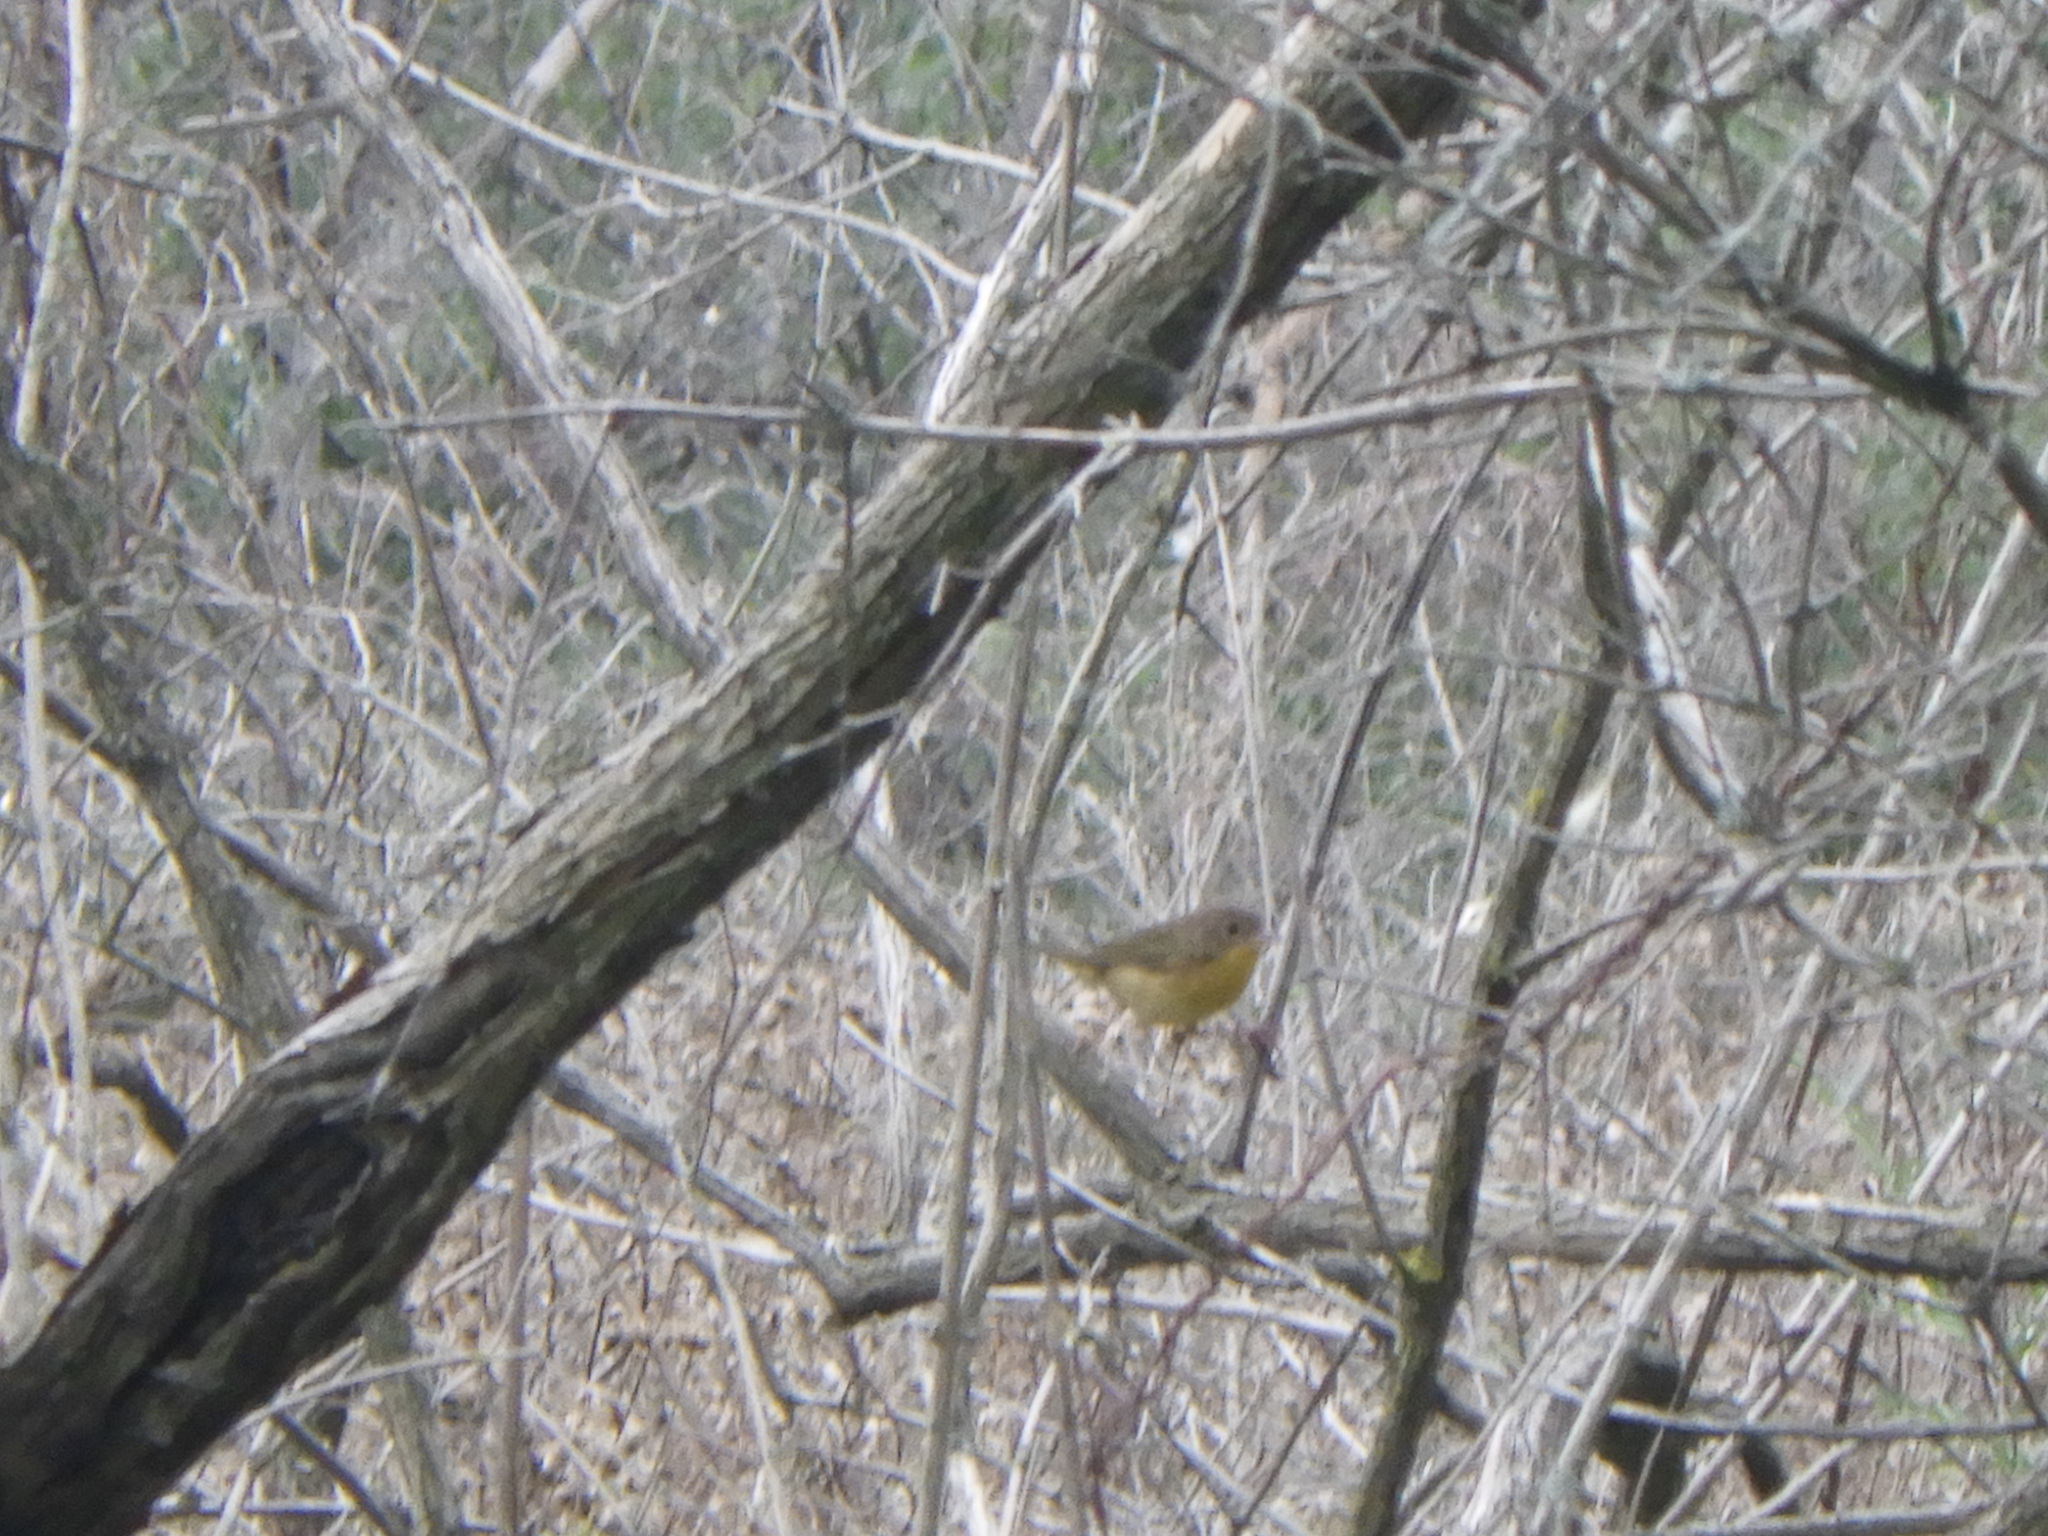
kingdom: Animalia
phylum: Chordata
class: Aves
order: Passeriformes
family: Parulidae
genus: Geothlypis
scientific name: Geothlypis trichas
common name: Common yellowthroat
